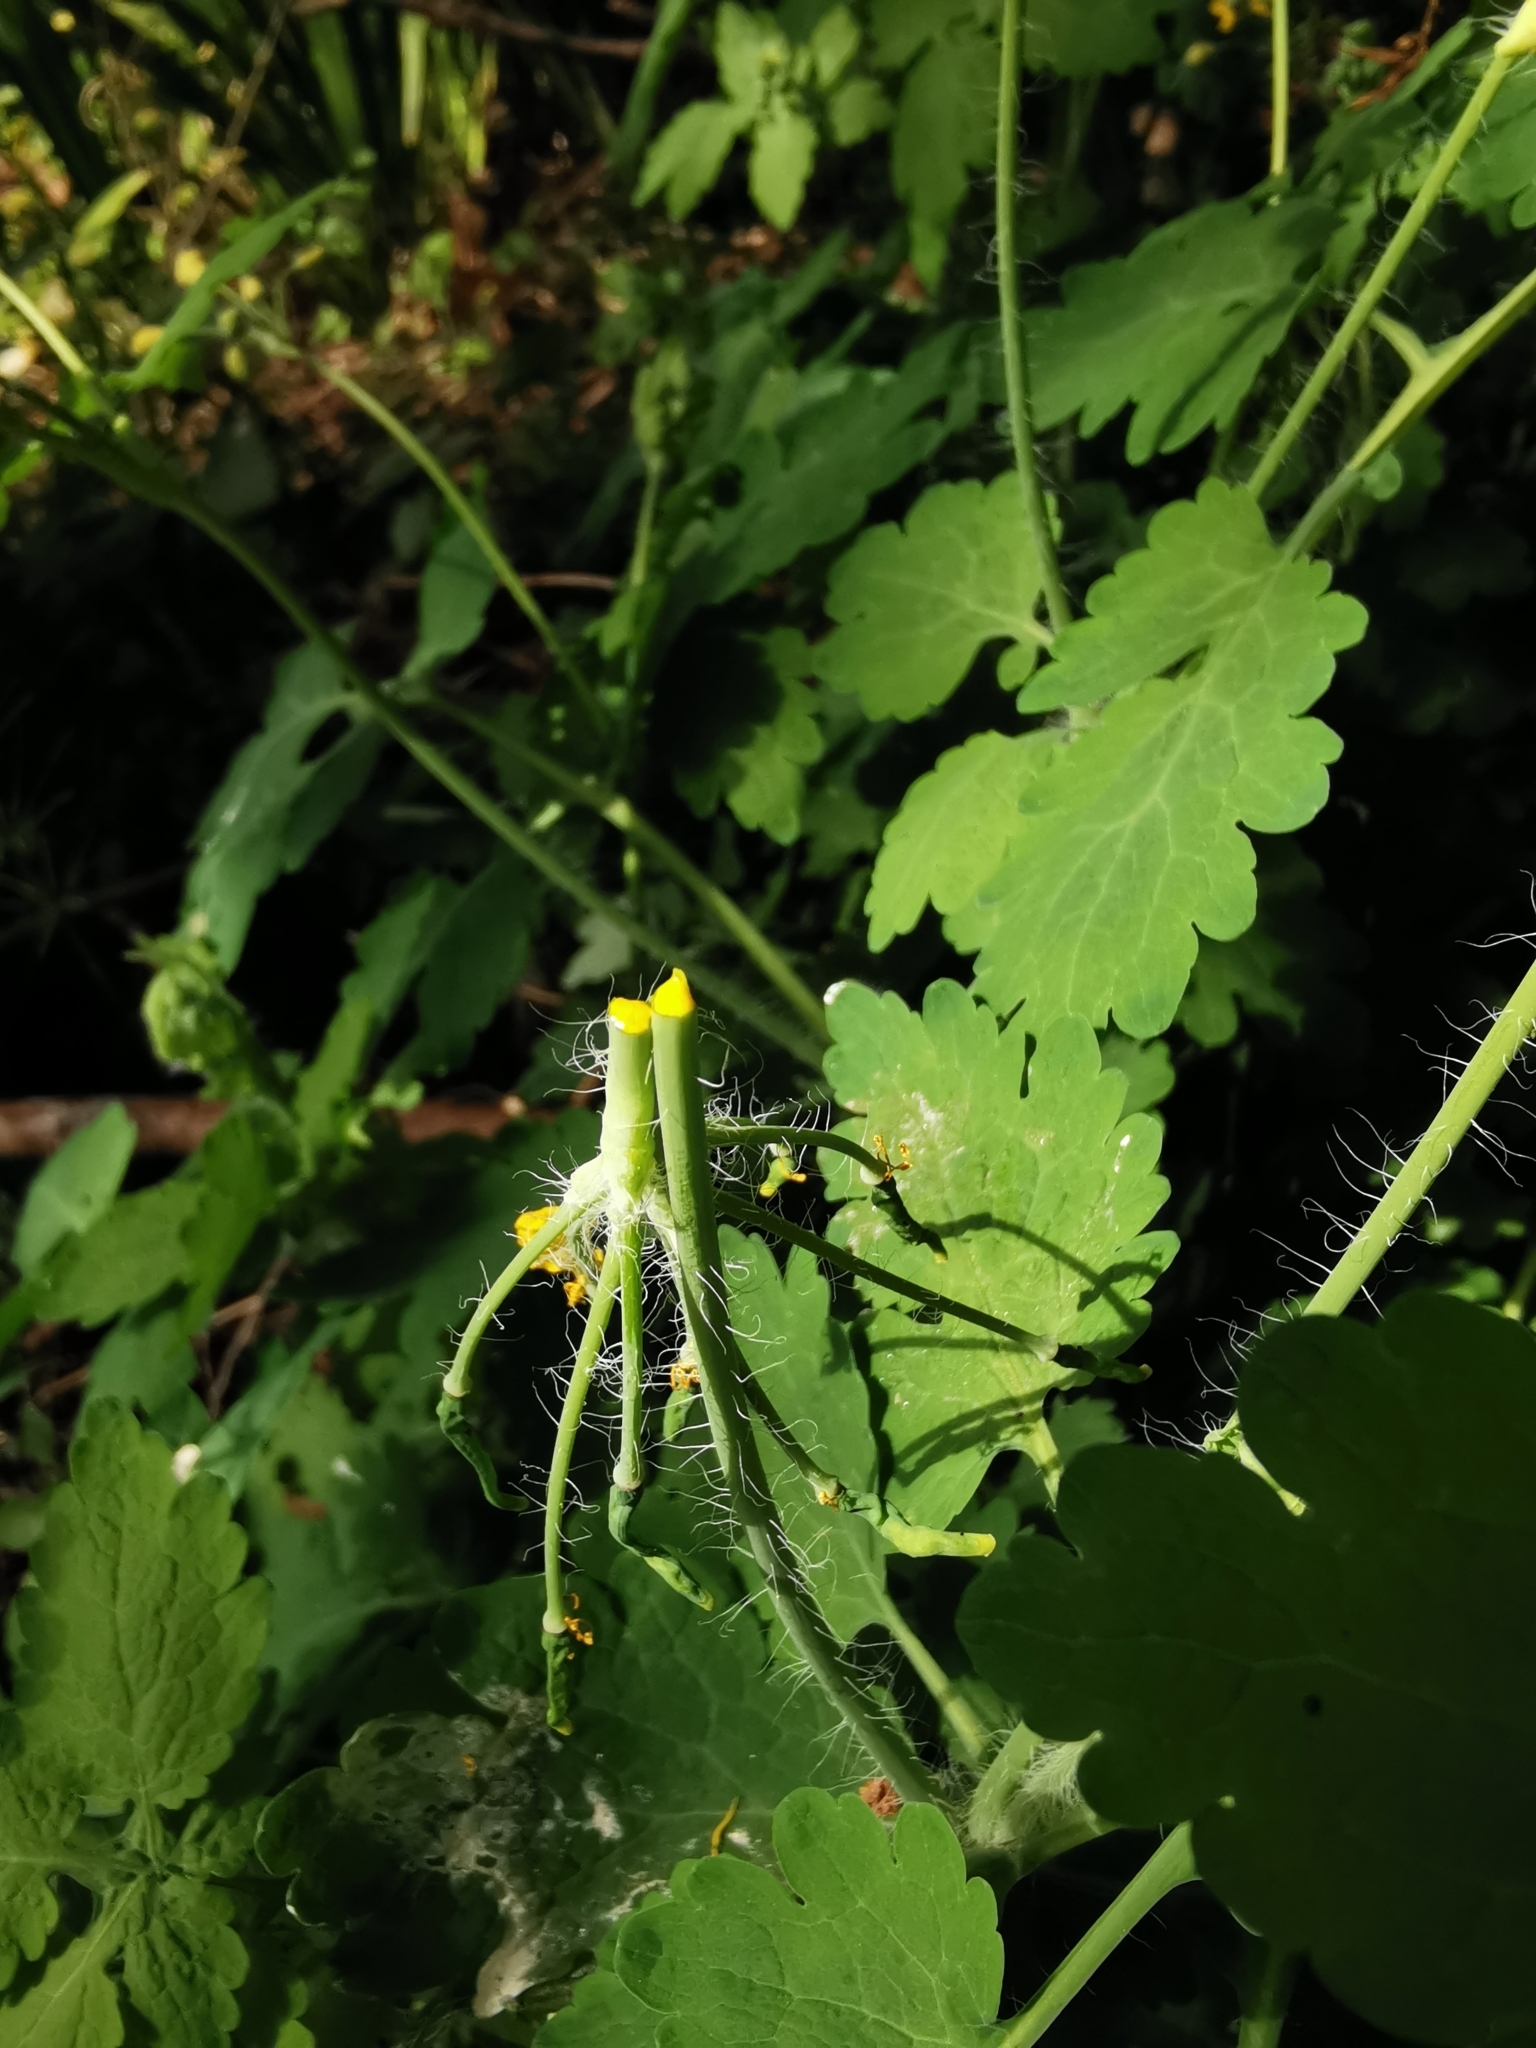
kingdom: Plantae
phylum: Tracheophyta
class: Magnoliopsida
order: Ranunculales
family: Papaveraceae
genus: Chelidonium
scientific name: Chelidonium majus
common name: Greater celandine
